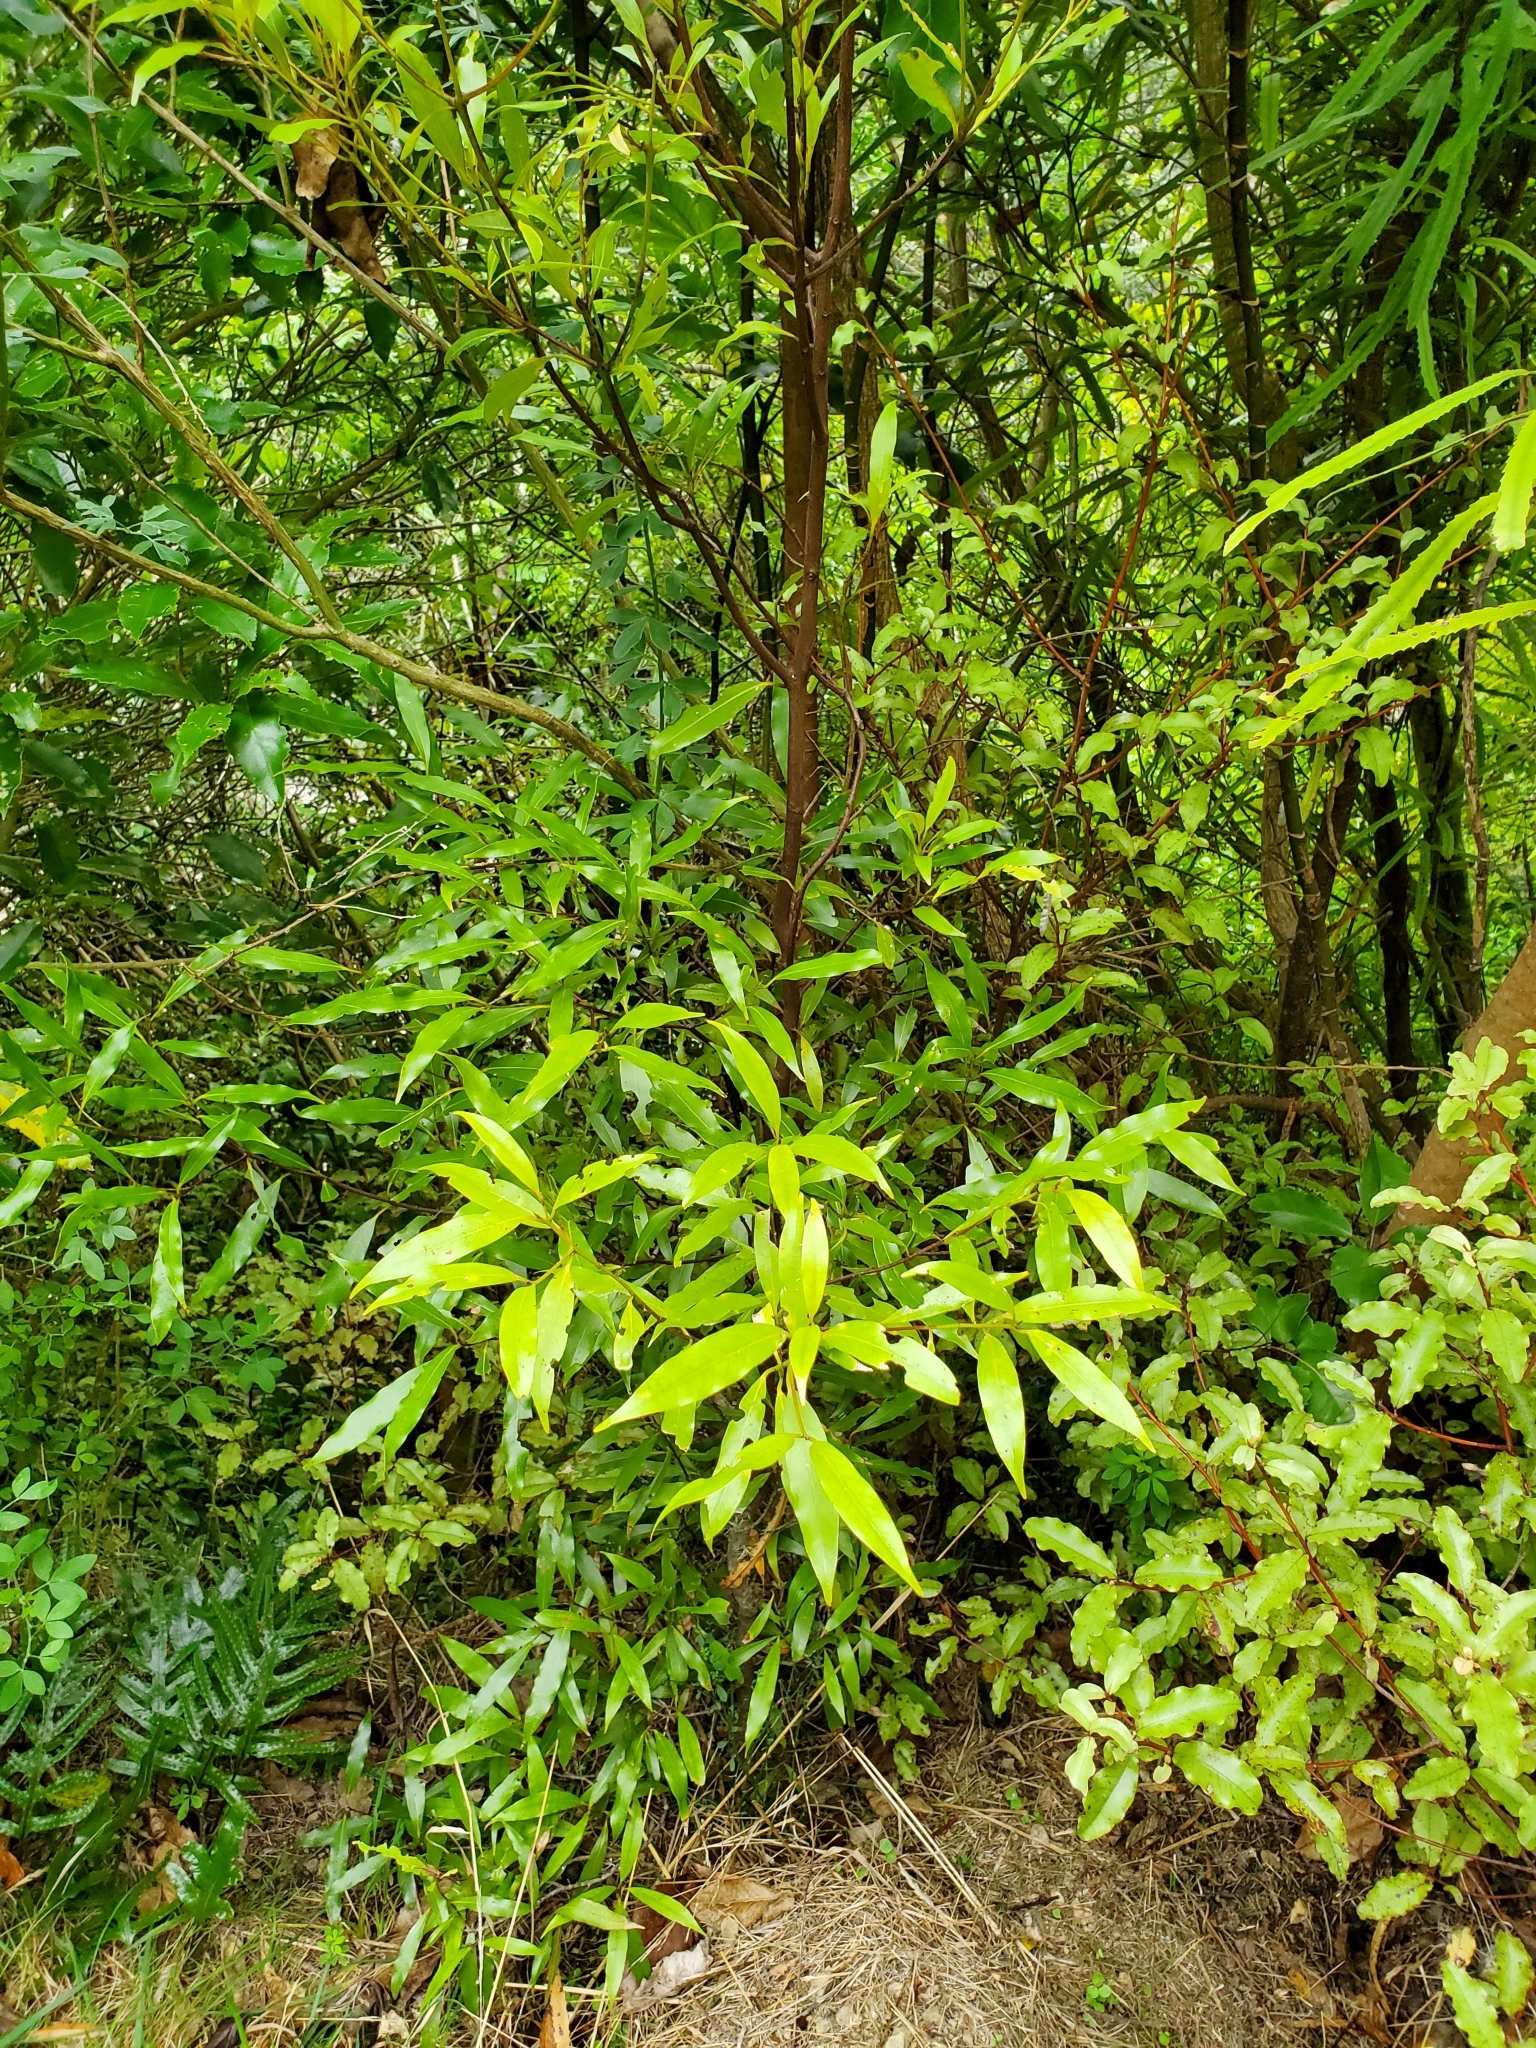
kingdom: Plantae
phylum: Tracheophyta
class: Magnoliopsida
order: Laurales
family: Lauraceae
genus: Beilschmiedia
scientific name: Beilschmiedia tawa
